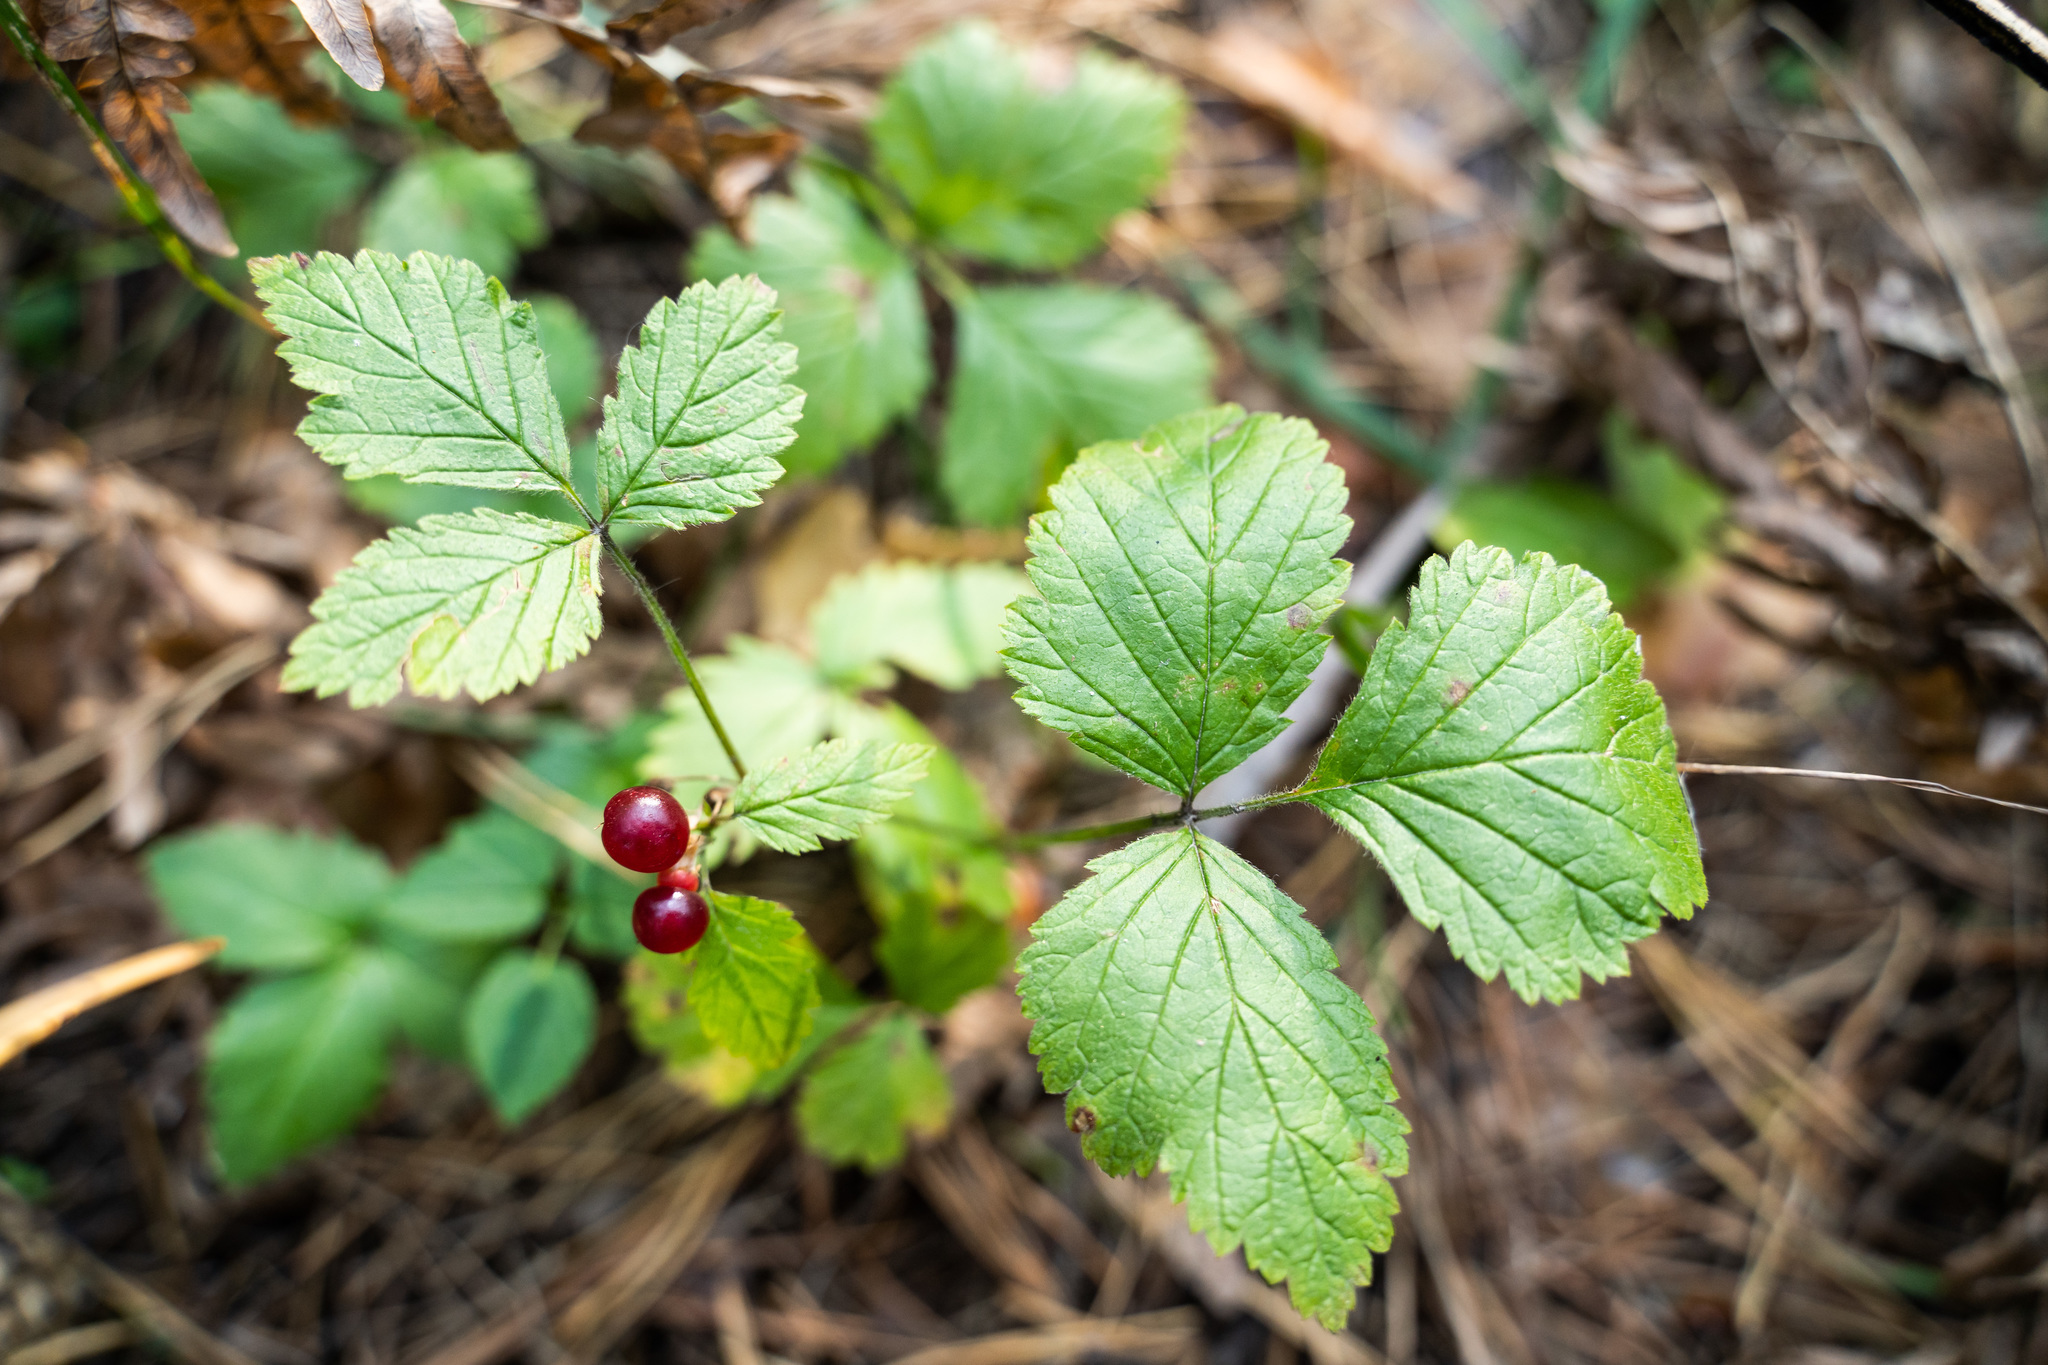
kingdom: Plantae
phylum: Tracheophyta
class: Magnoliopsida
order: Rosales
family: Rosaceae
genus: Rubus
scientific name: Rubus saxatilis
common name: Stone bramble
